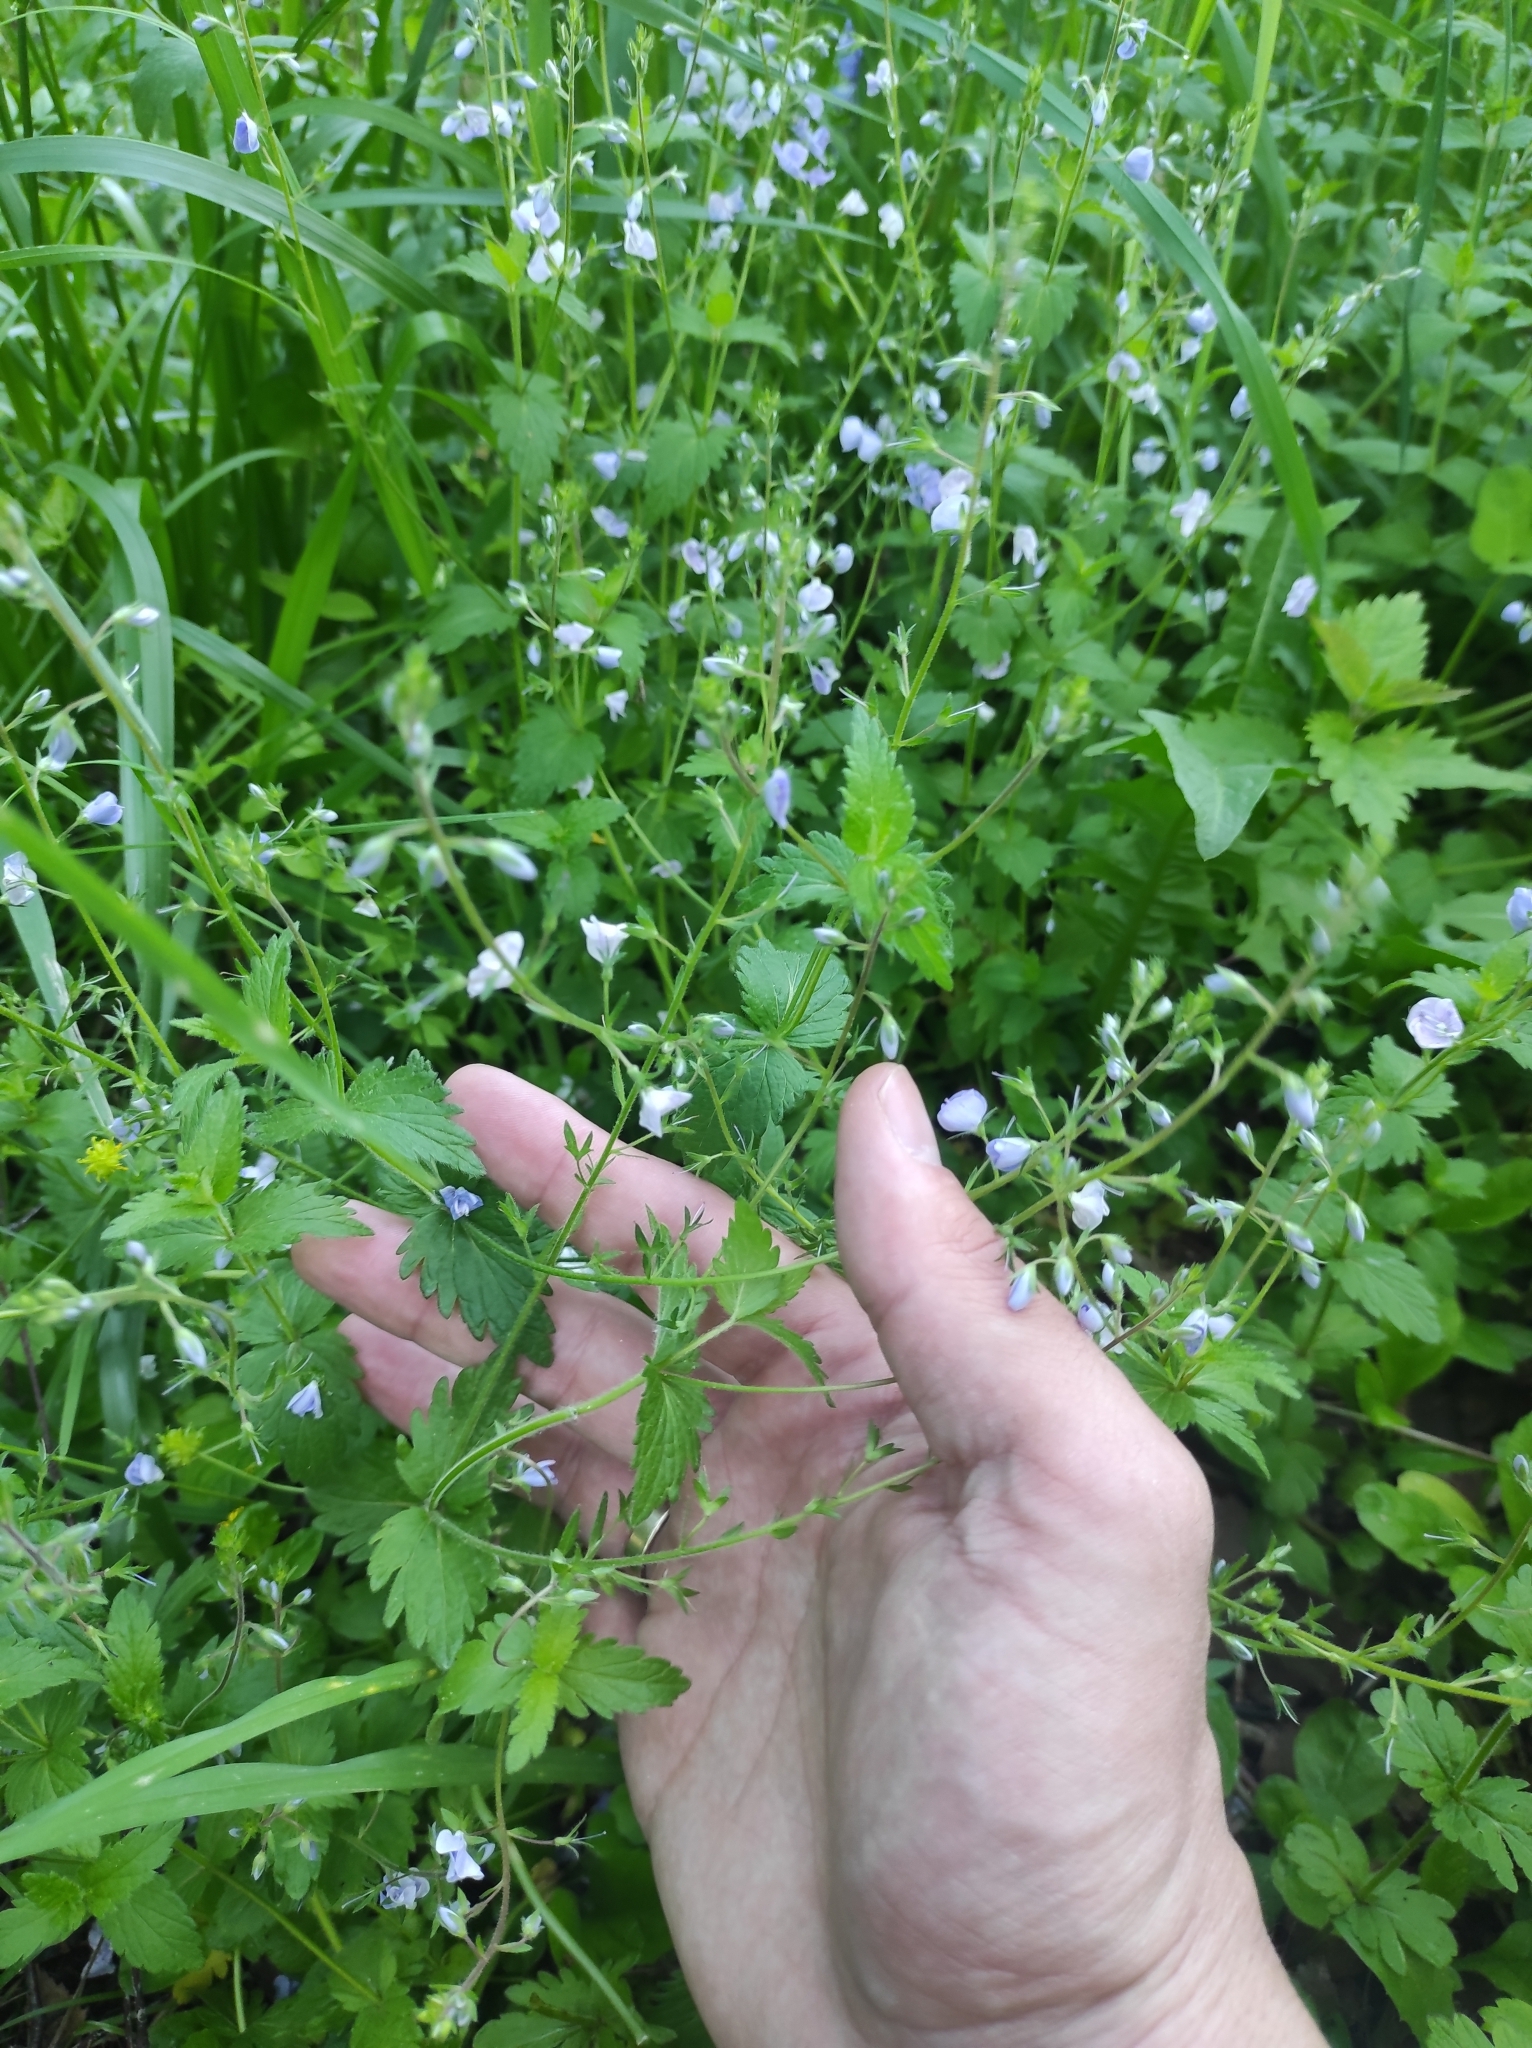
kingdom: Plantae
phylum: Tracheophyta
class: Magnoliopsida
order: Lamiales
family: Plantaginaceae
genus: Veronica
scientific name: Veronica chamaedrys
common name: Germander speedwell
